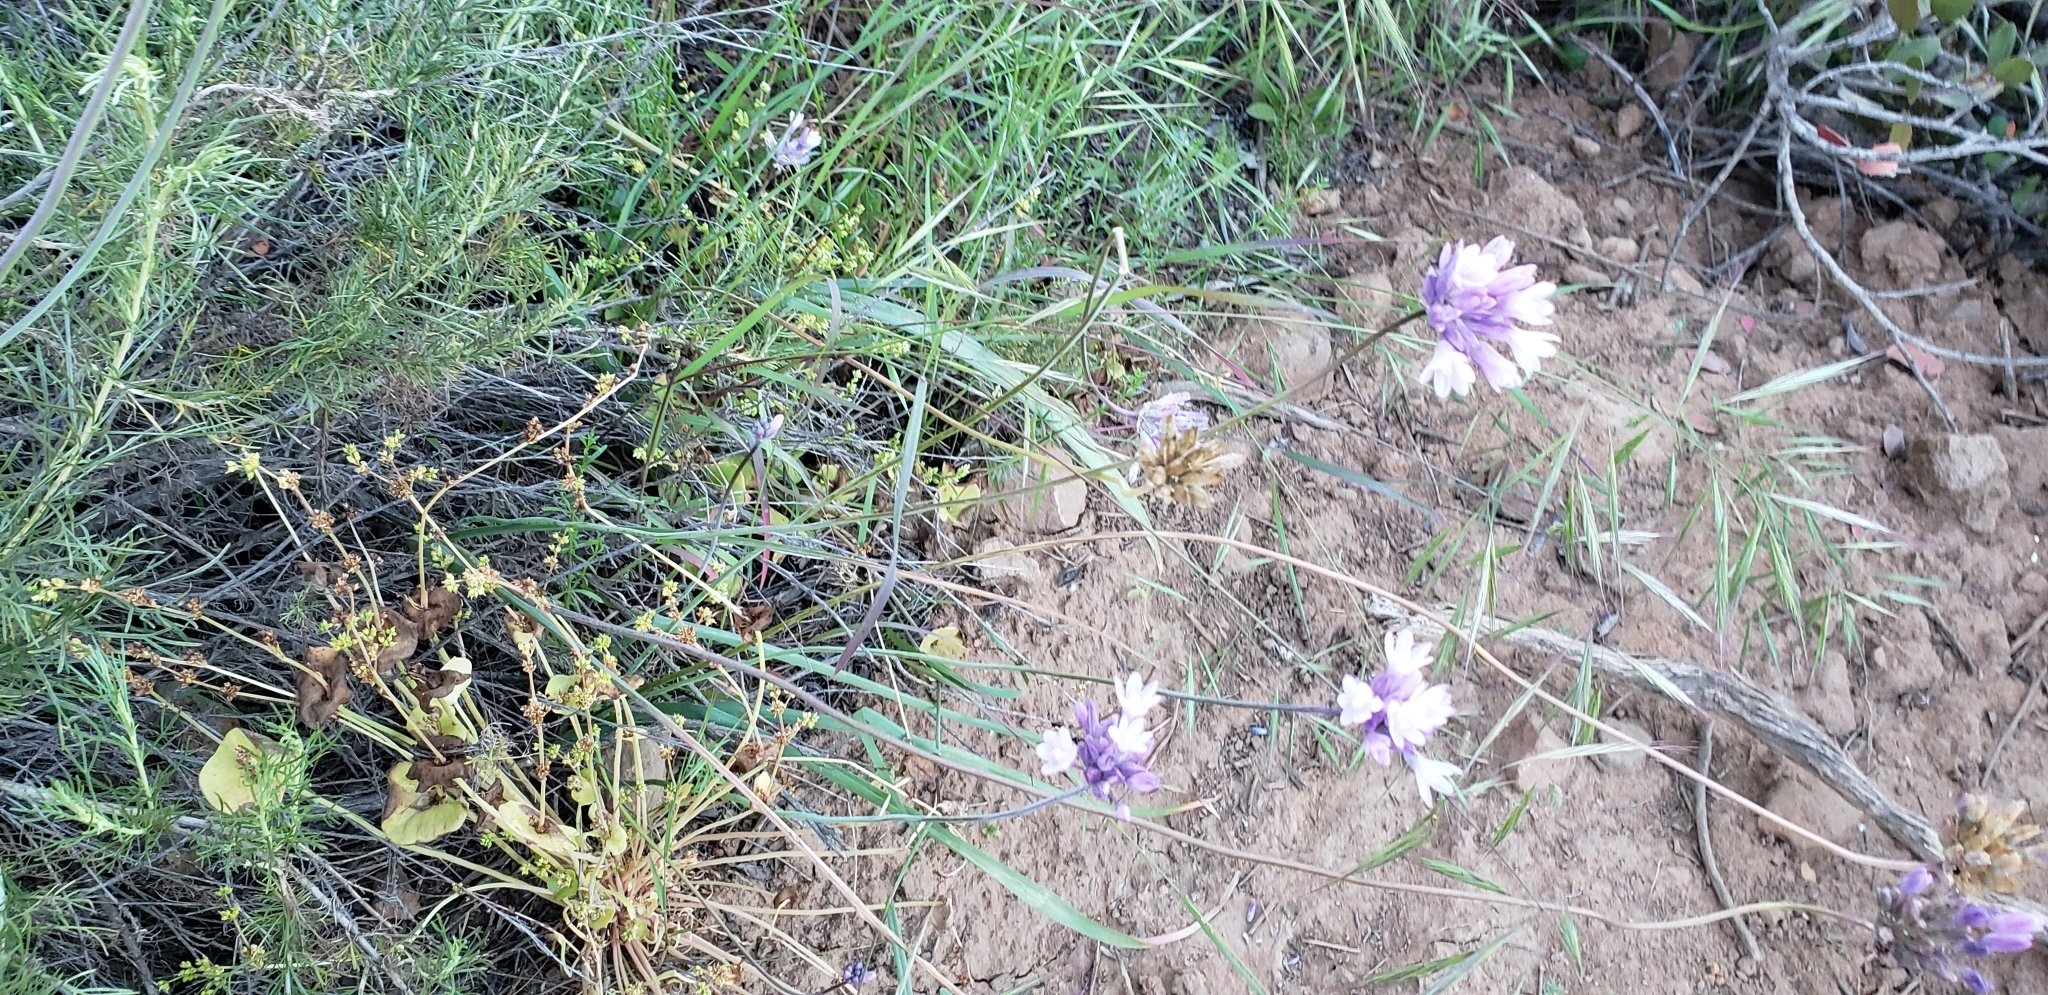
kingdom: Plantae
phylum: Tracheophyta
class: Liliopsida
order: Asparagales
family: Asparagaceae
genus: Dipterostemon
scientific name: Dipterostemon capitatus
